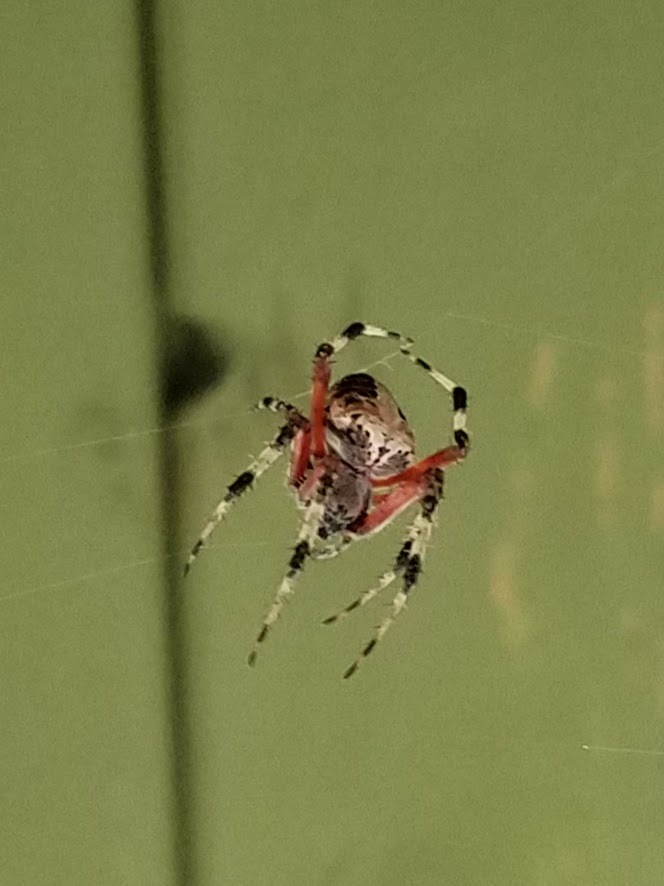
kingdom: Animalia
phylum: Arthropoda
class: Arachnida
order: Araneae
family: Araneidae
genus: Neoscona
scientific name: Neoscona domiciliorum
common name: Red-femured spotted orbweaver
